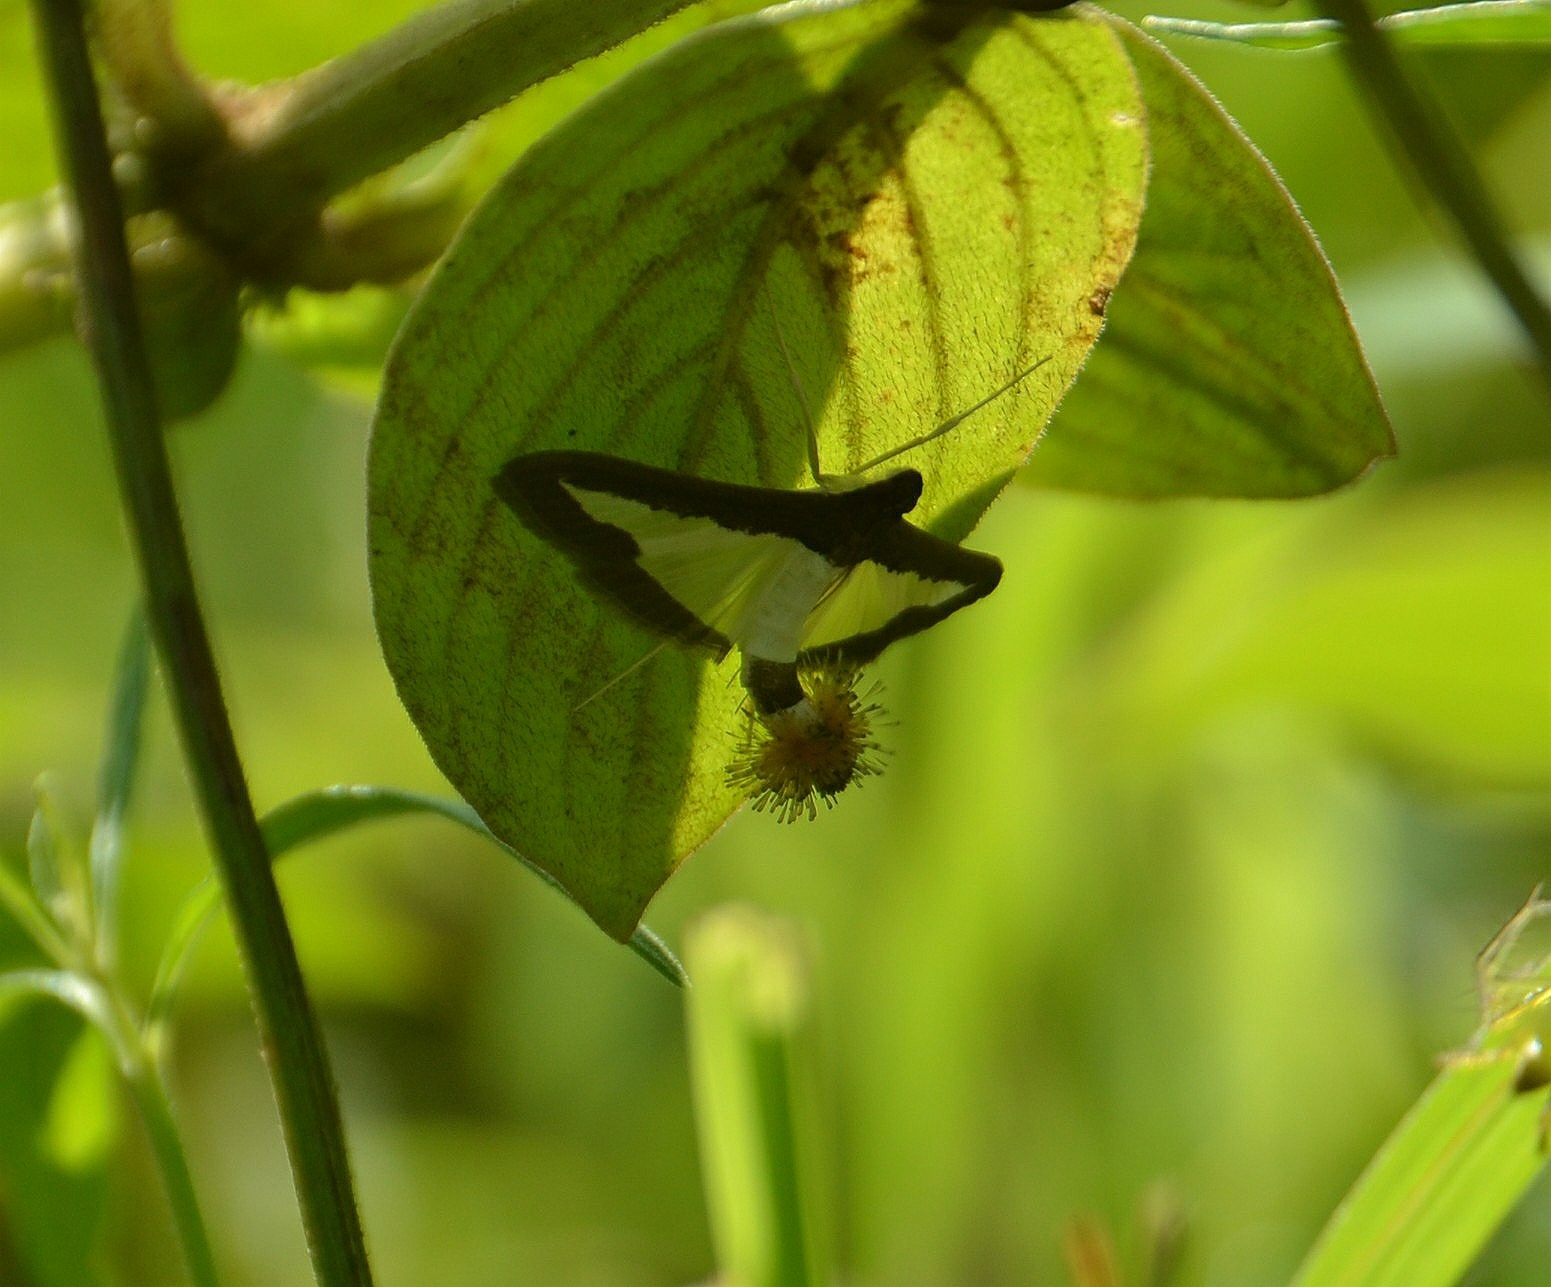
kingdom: Animalia
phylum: Arthropoda
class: Insecta
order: Lepidoptera
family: Crambidae
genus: Diaphania
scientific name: Diaphania indica
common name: Cucumber moth
